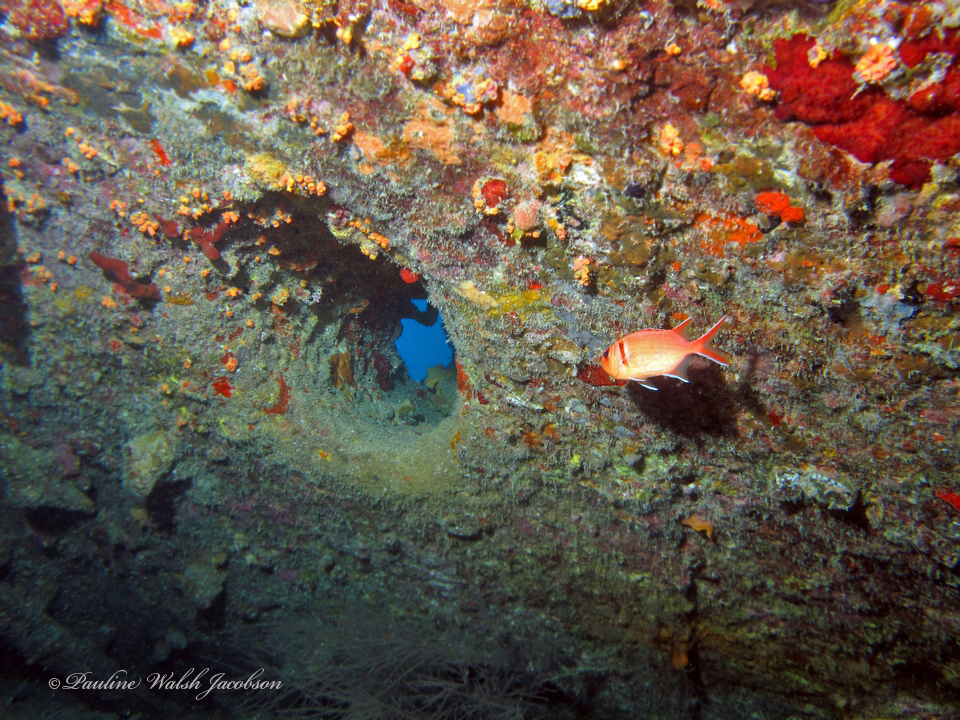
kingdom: Animalia
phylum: Chordata
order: Beryciformes
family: Holocentridae
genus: Myripristis
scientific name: Myripristis jacobus
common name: Blackbar soldierfish
